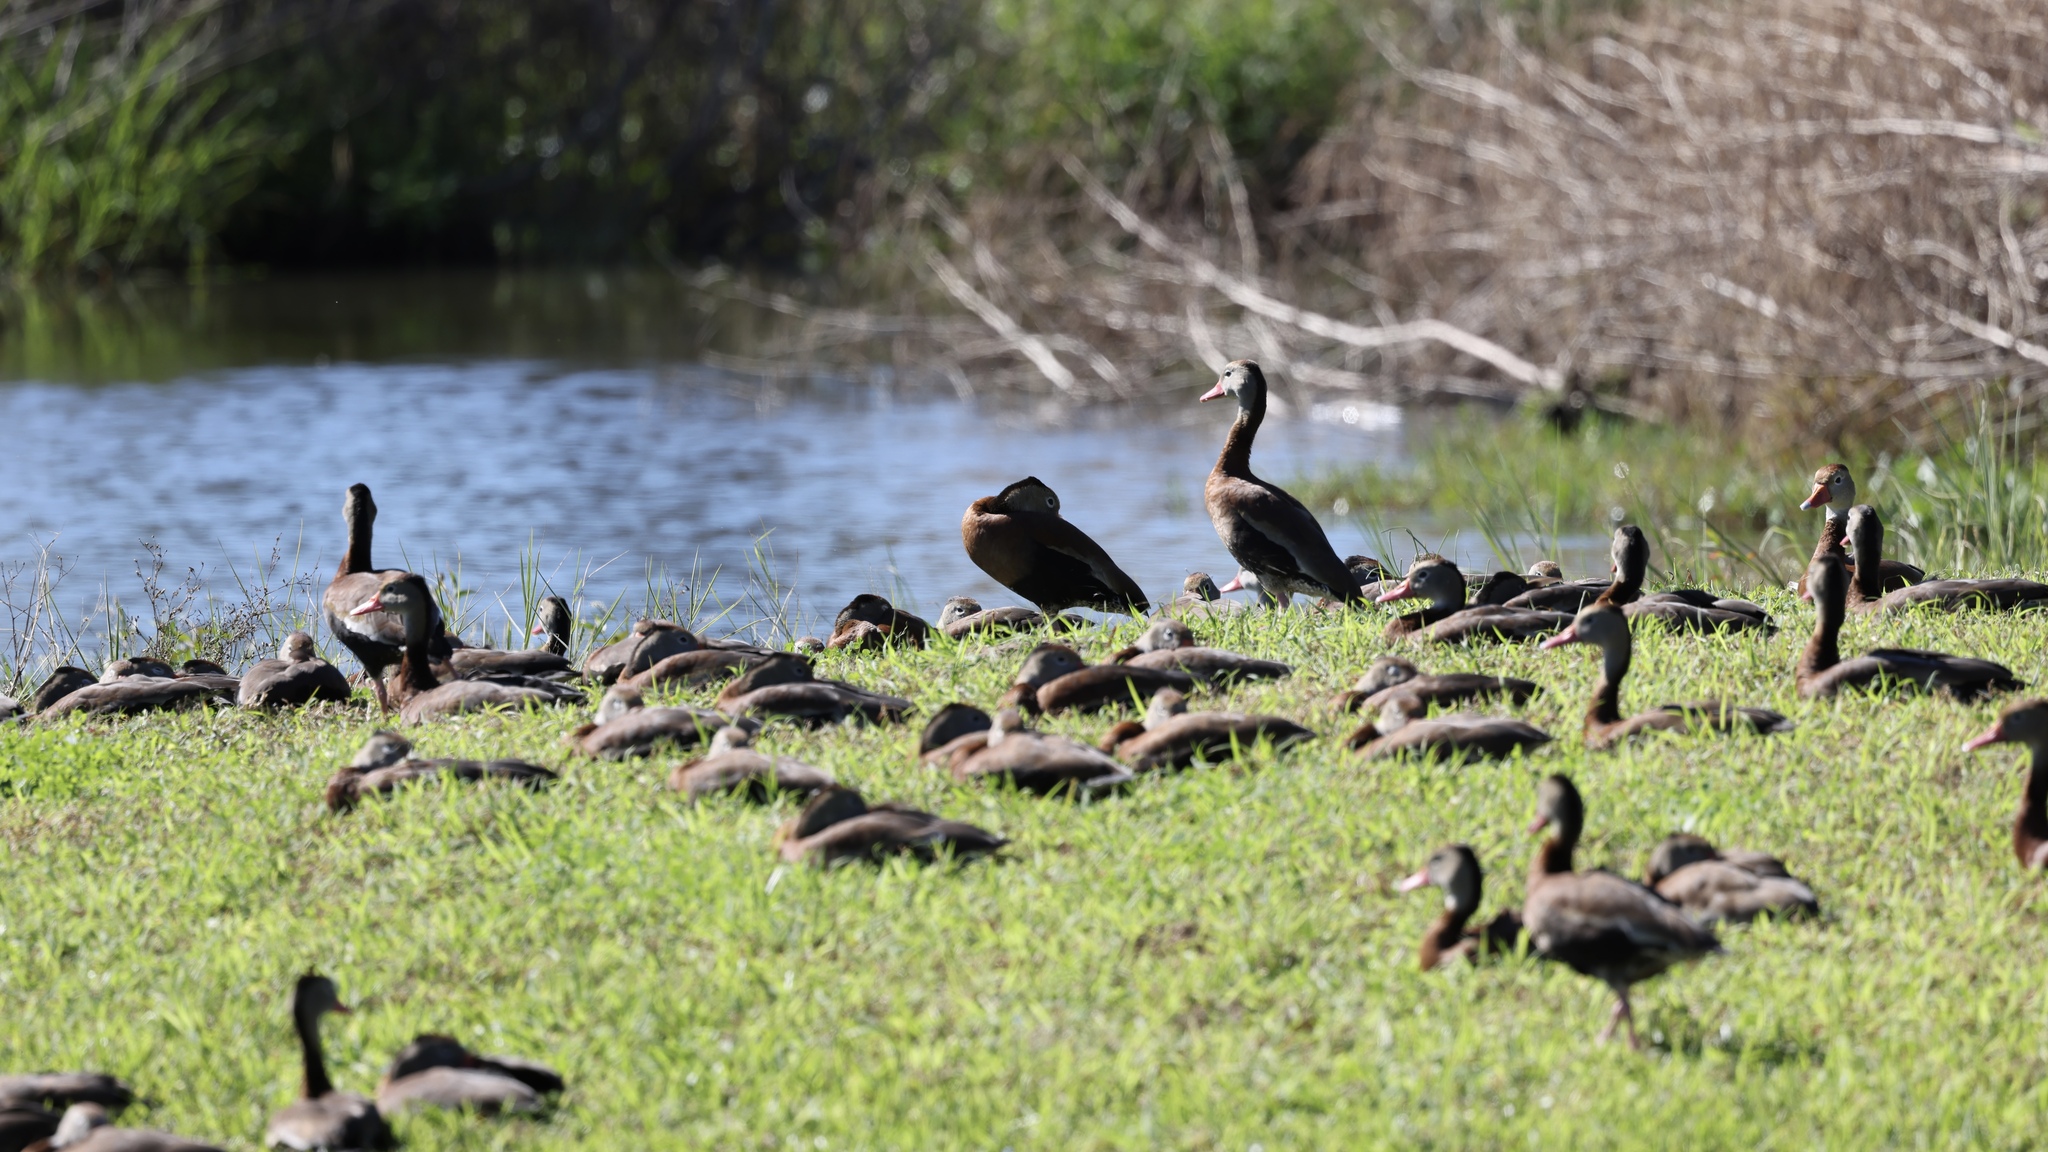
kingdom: Animalia
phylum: Chordata
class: Aves
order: Anseriformes
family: Anatidae
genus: Dendrocygna
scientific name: Dendrocygna autumnalis
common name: Black-bellied whistling duck
